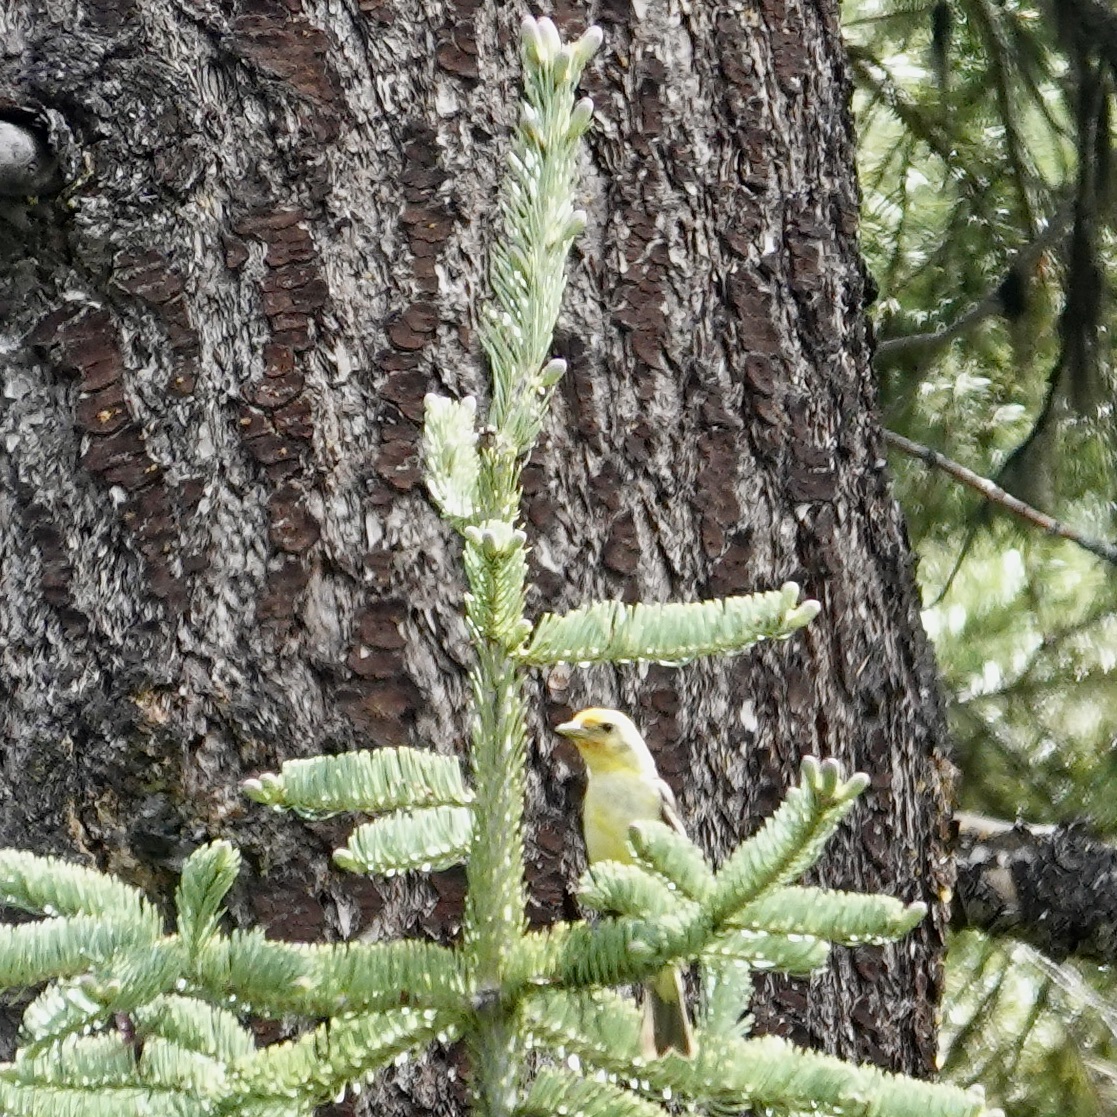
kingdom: Animalia
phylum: Chordata
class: Aves
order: Passeriformes
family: Cardinalidae
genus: Piranga
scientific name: Piranga ludoviciana
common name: Western tanager
